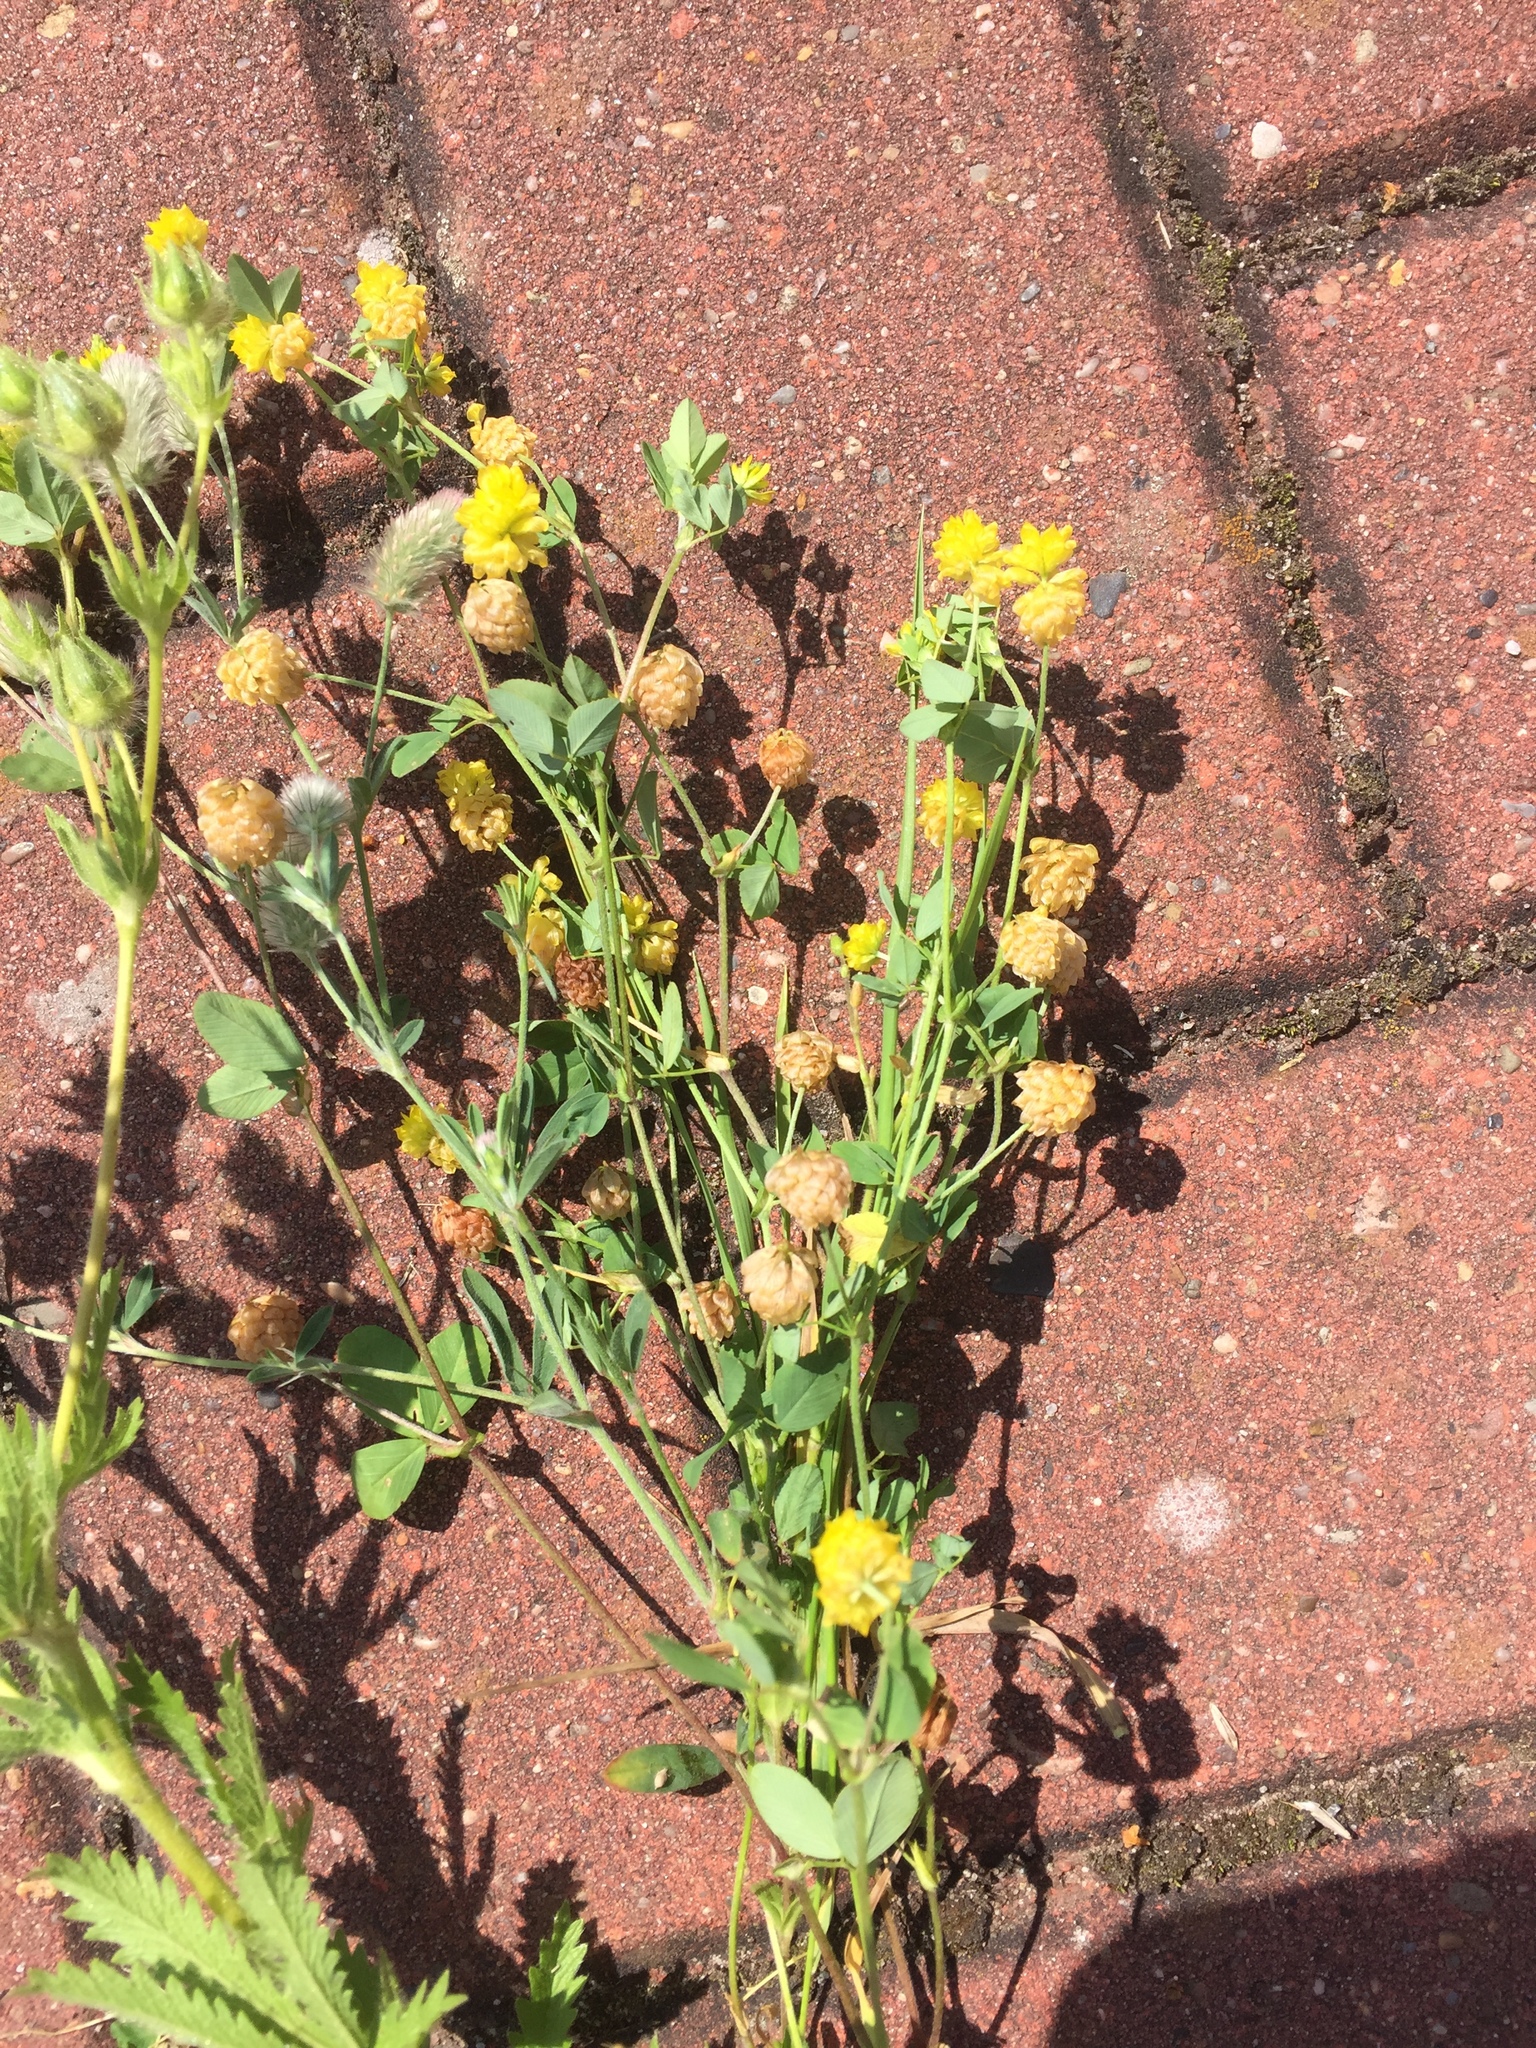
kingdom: Plantae
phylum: Tracheophyta
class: Magnoliopsida
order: Fabales
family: Fabaceae
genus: Trifolium
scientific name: Trifolium campestre
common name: Field clover
